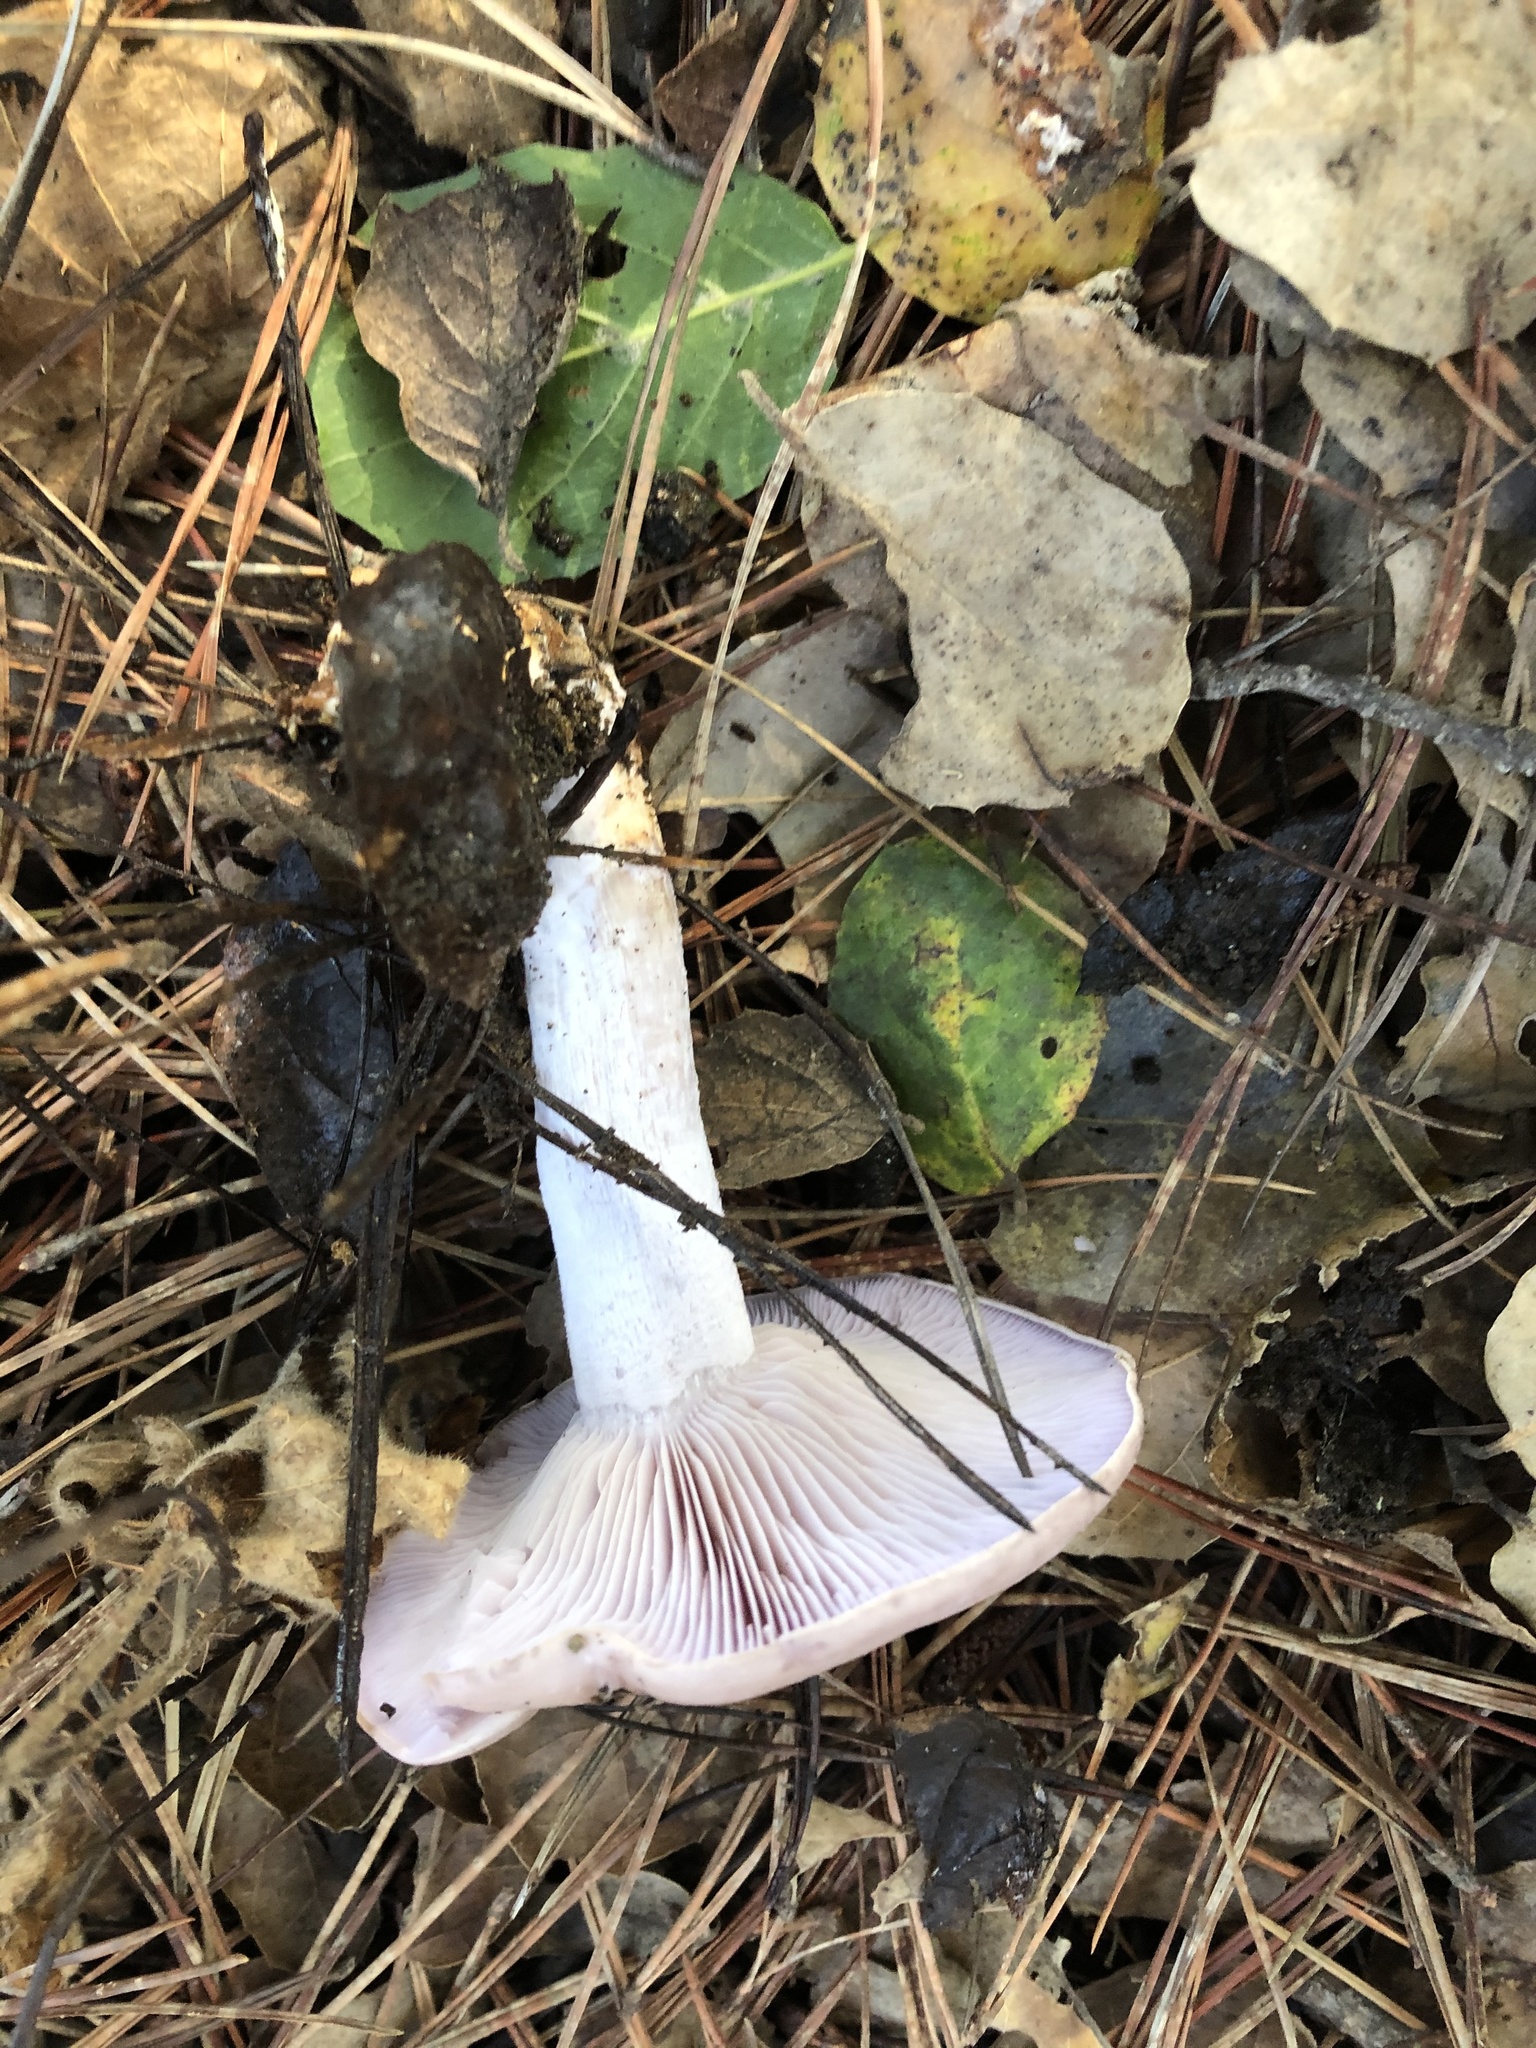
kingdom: Fungi
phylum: Basidiomycota
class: Agaricomycetes
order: Agaricales
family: Tricholomataceae
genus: Collybia
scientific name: Collybia
